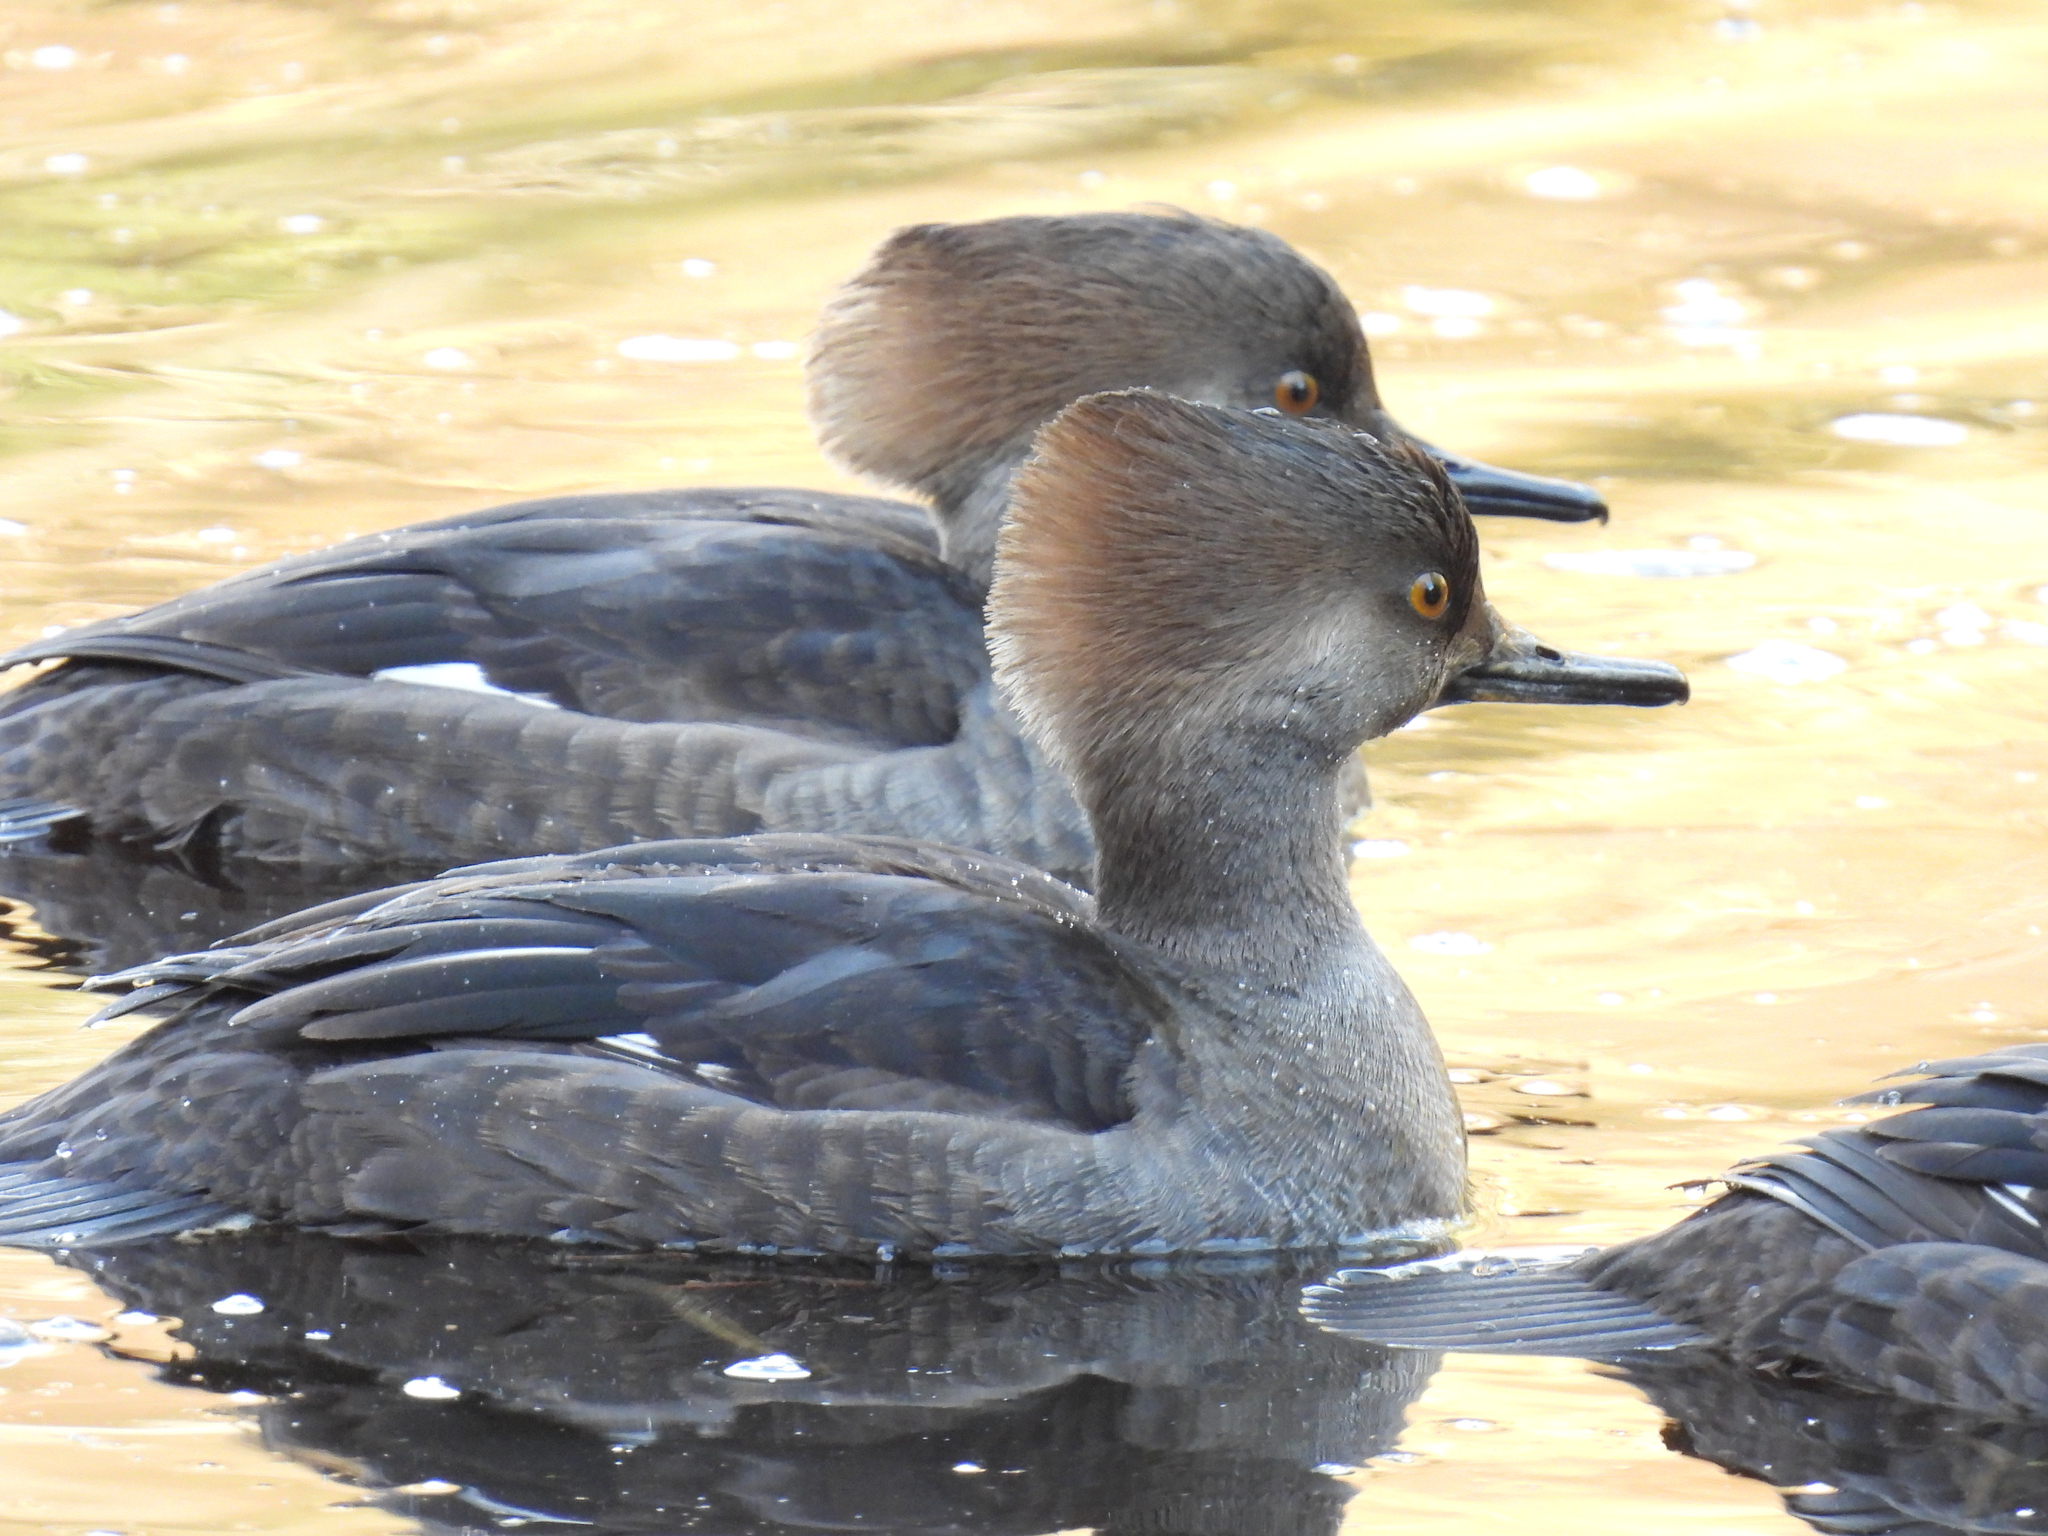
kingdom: Animalia
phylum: Chordata
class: Aves
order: Anseriformes
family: Anatidae
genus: Lophodytes
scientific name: Lophodytes cucullatus
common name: Hooded merganser
